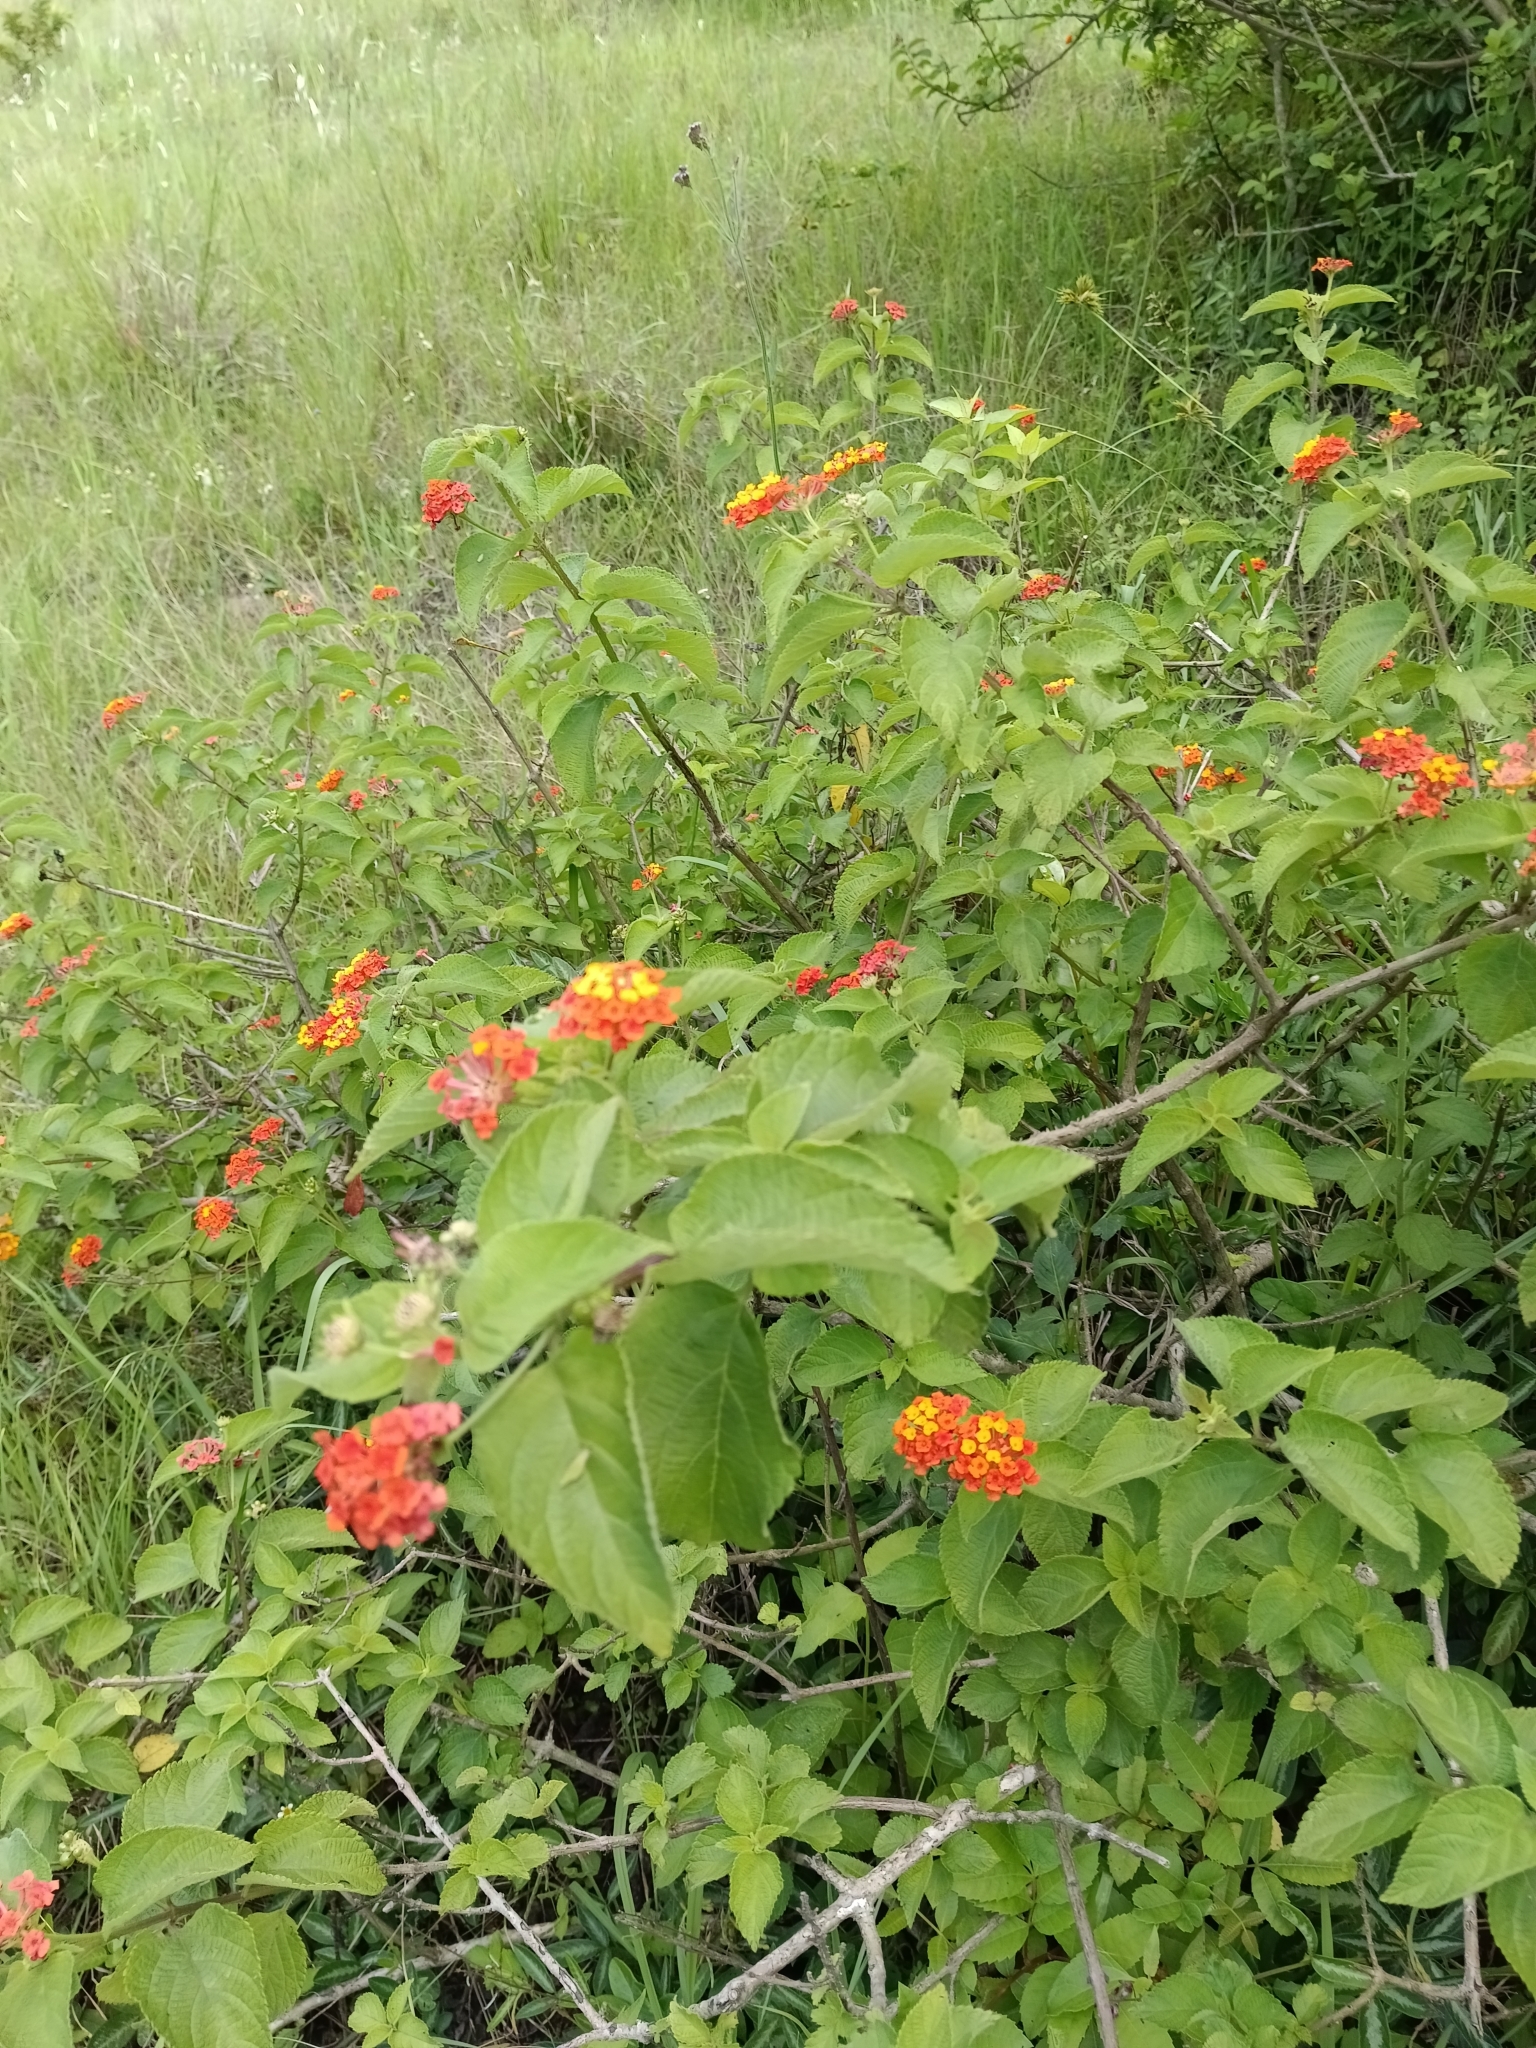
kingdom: Plantae
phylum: Tracheophyta
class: Magnoliopsida
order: Lamiales
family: Verbenaceae
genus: Lantana
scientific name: Lantana camara
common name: Lantana
